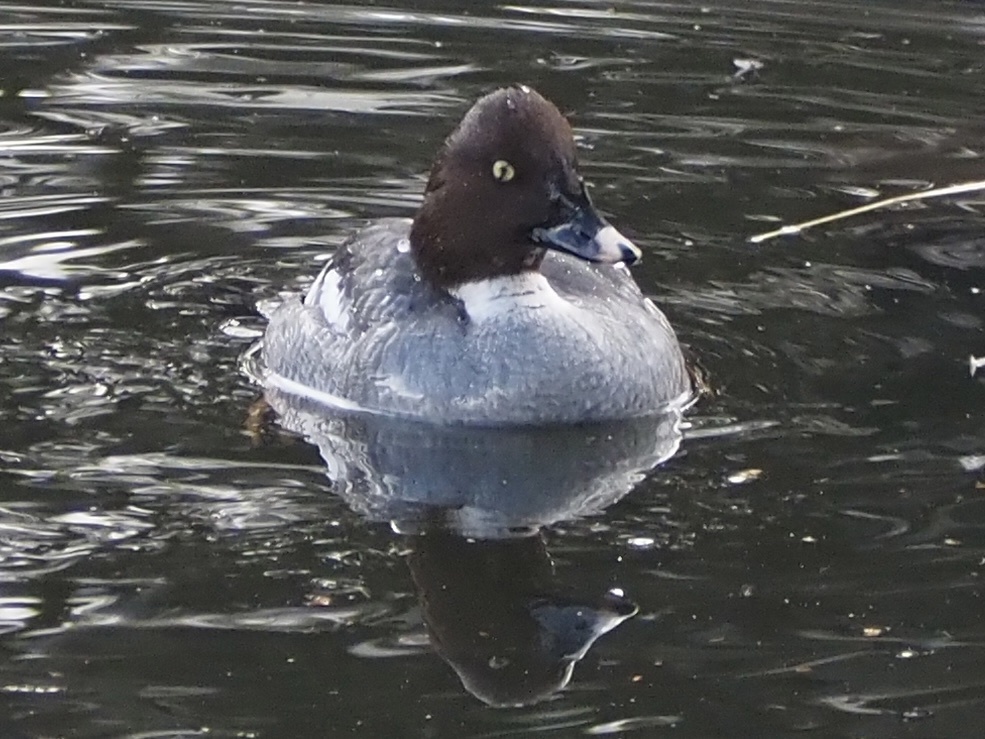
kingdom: Animalia
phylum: Chordata
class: Aves
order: Anseriformes
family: Anatidae
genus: Bucephala
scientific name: Bucephala clangula
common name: Common goldeneye
